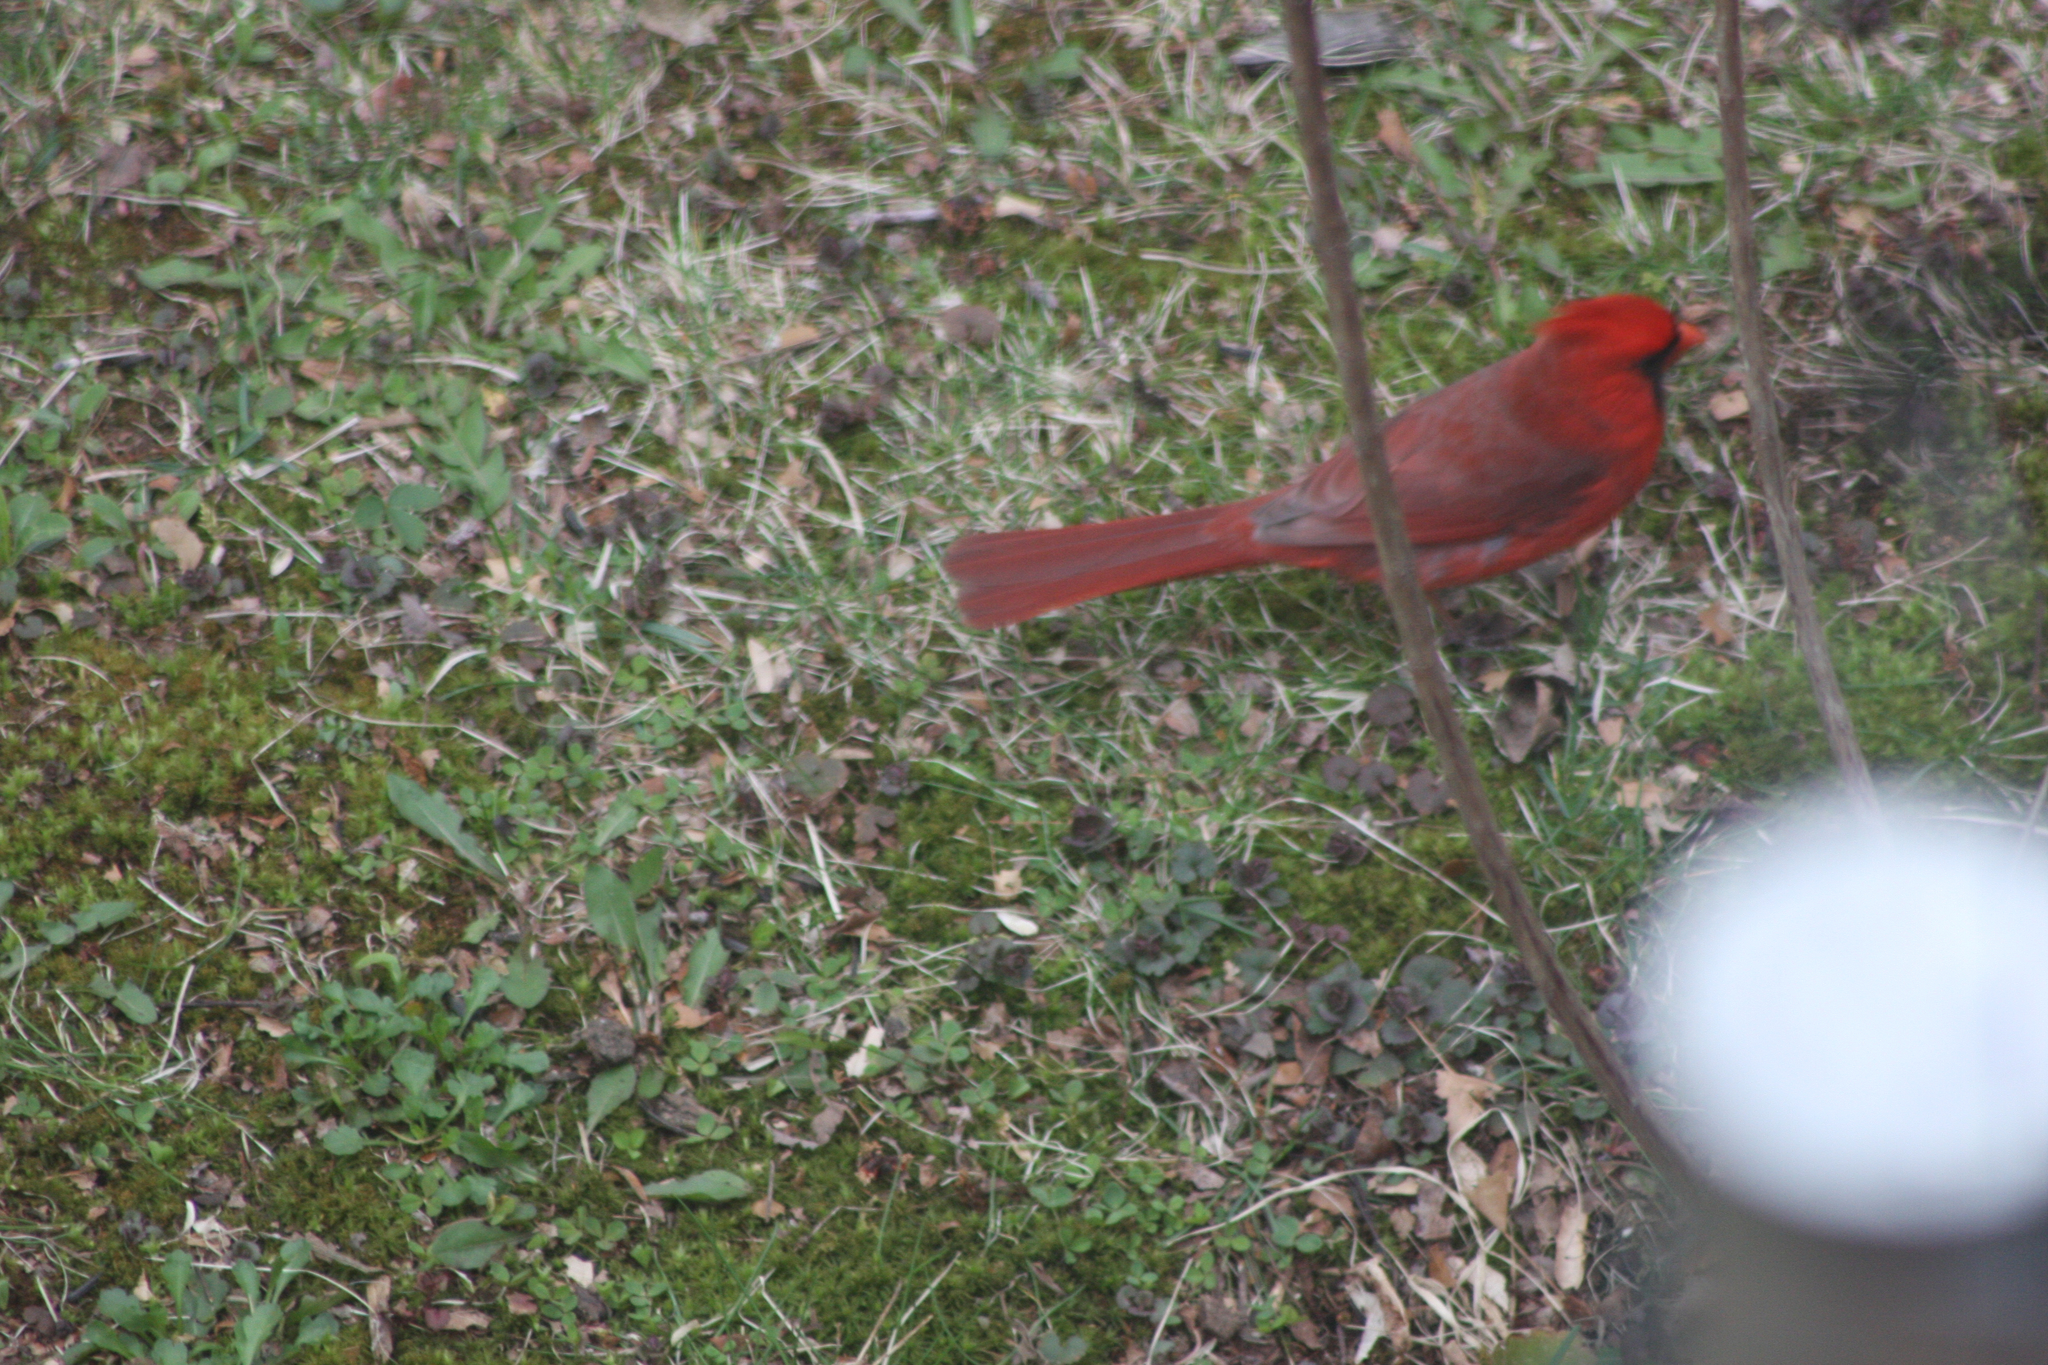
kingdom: Animalia
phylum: Chordata
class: Aves
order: Passeriformes
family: Cardinalidae
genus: Cardinalis
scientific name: Cardinalis cardinalis
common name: Northern cardinal
